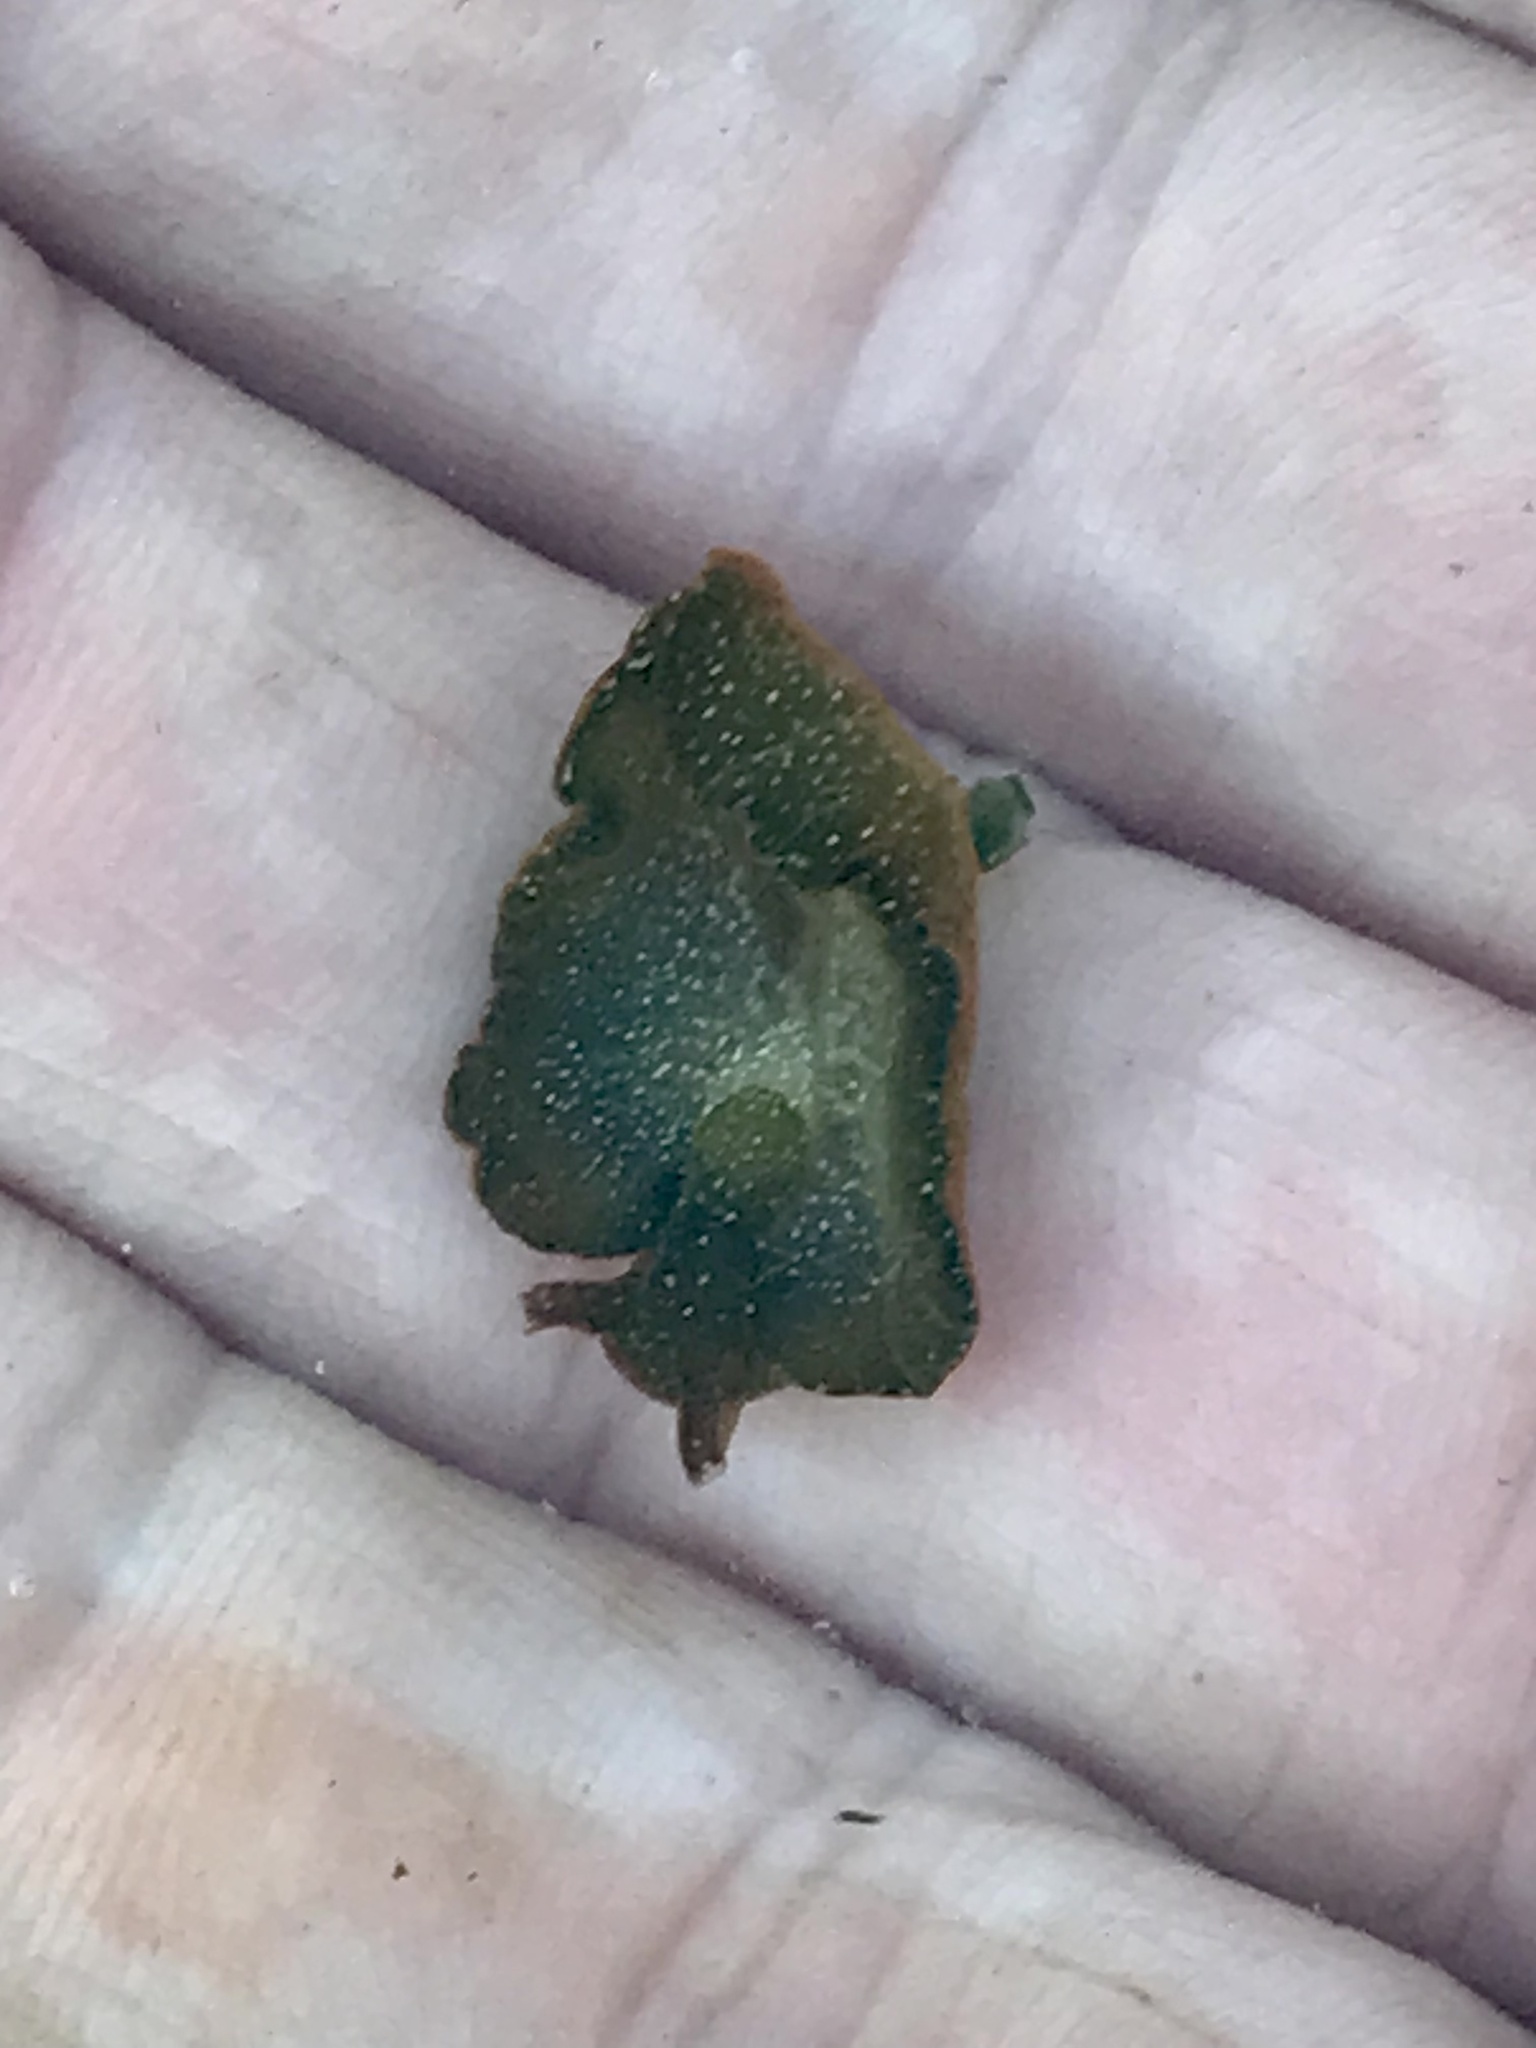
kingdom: Animalia
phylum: Mollusca
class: Gastropoda
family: Plakobranchidae
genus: Elysia
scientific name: Elysia hedgpethi
